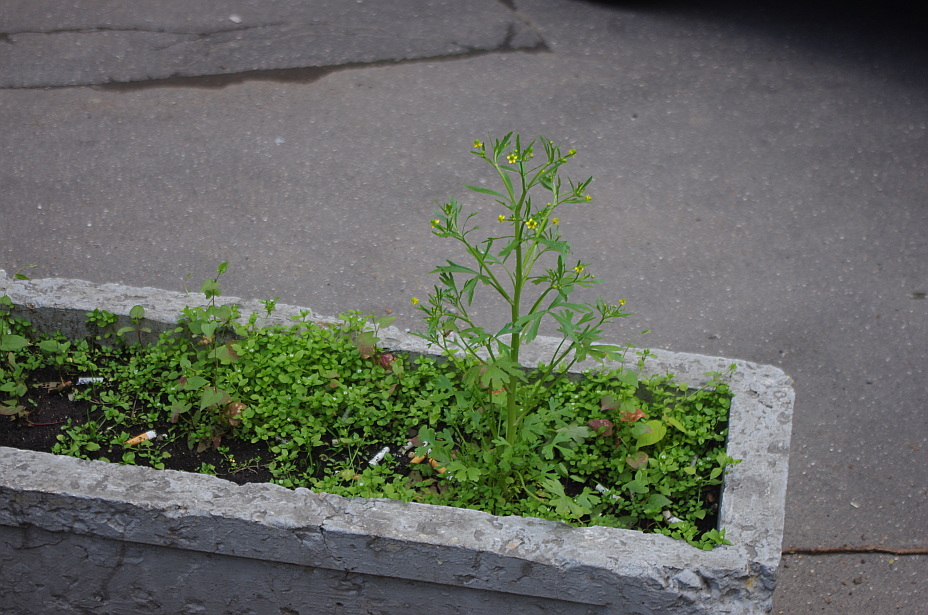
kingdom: Plantae
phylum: Tracheophyta
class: Magnoliopsida
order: Caryophyllales
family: Caryophyllaceae
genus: Stellaria
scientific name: Stellaria media
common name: Common chickweed
